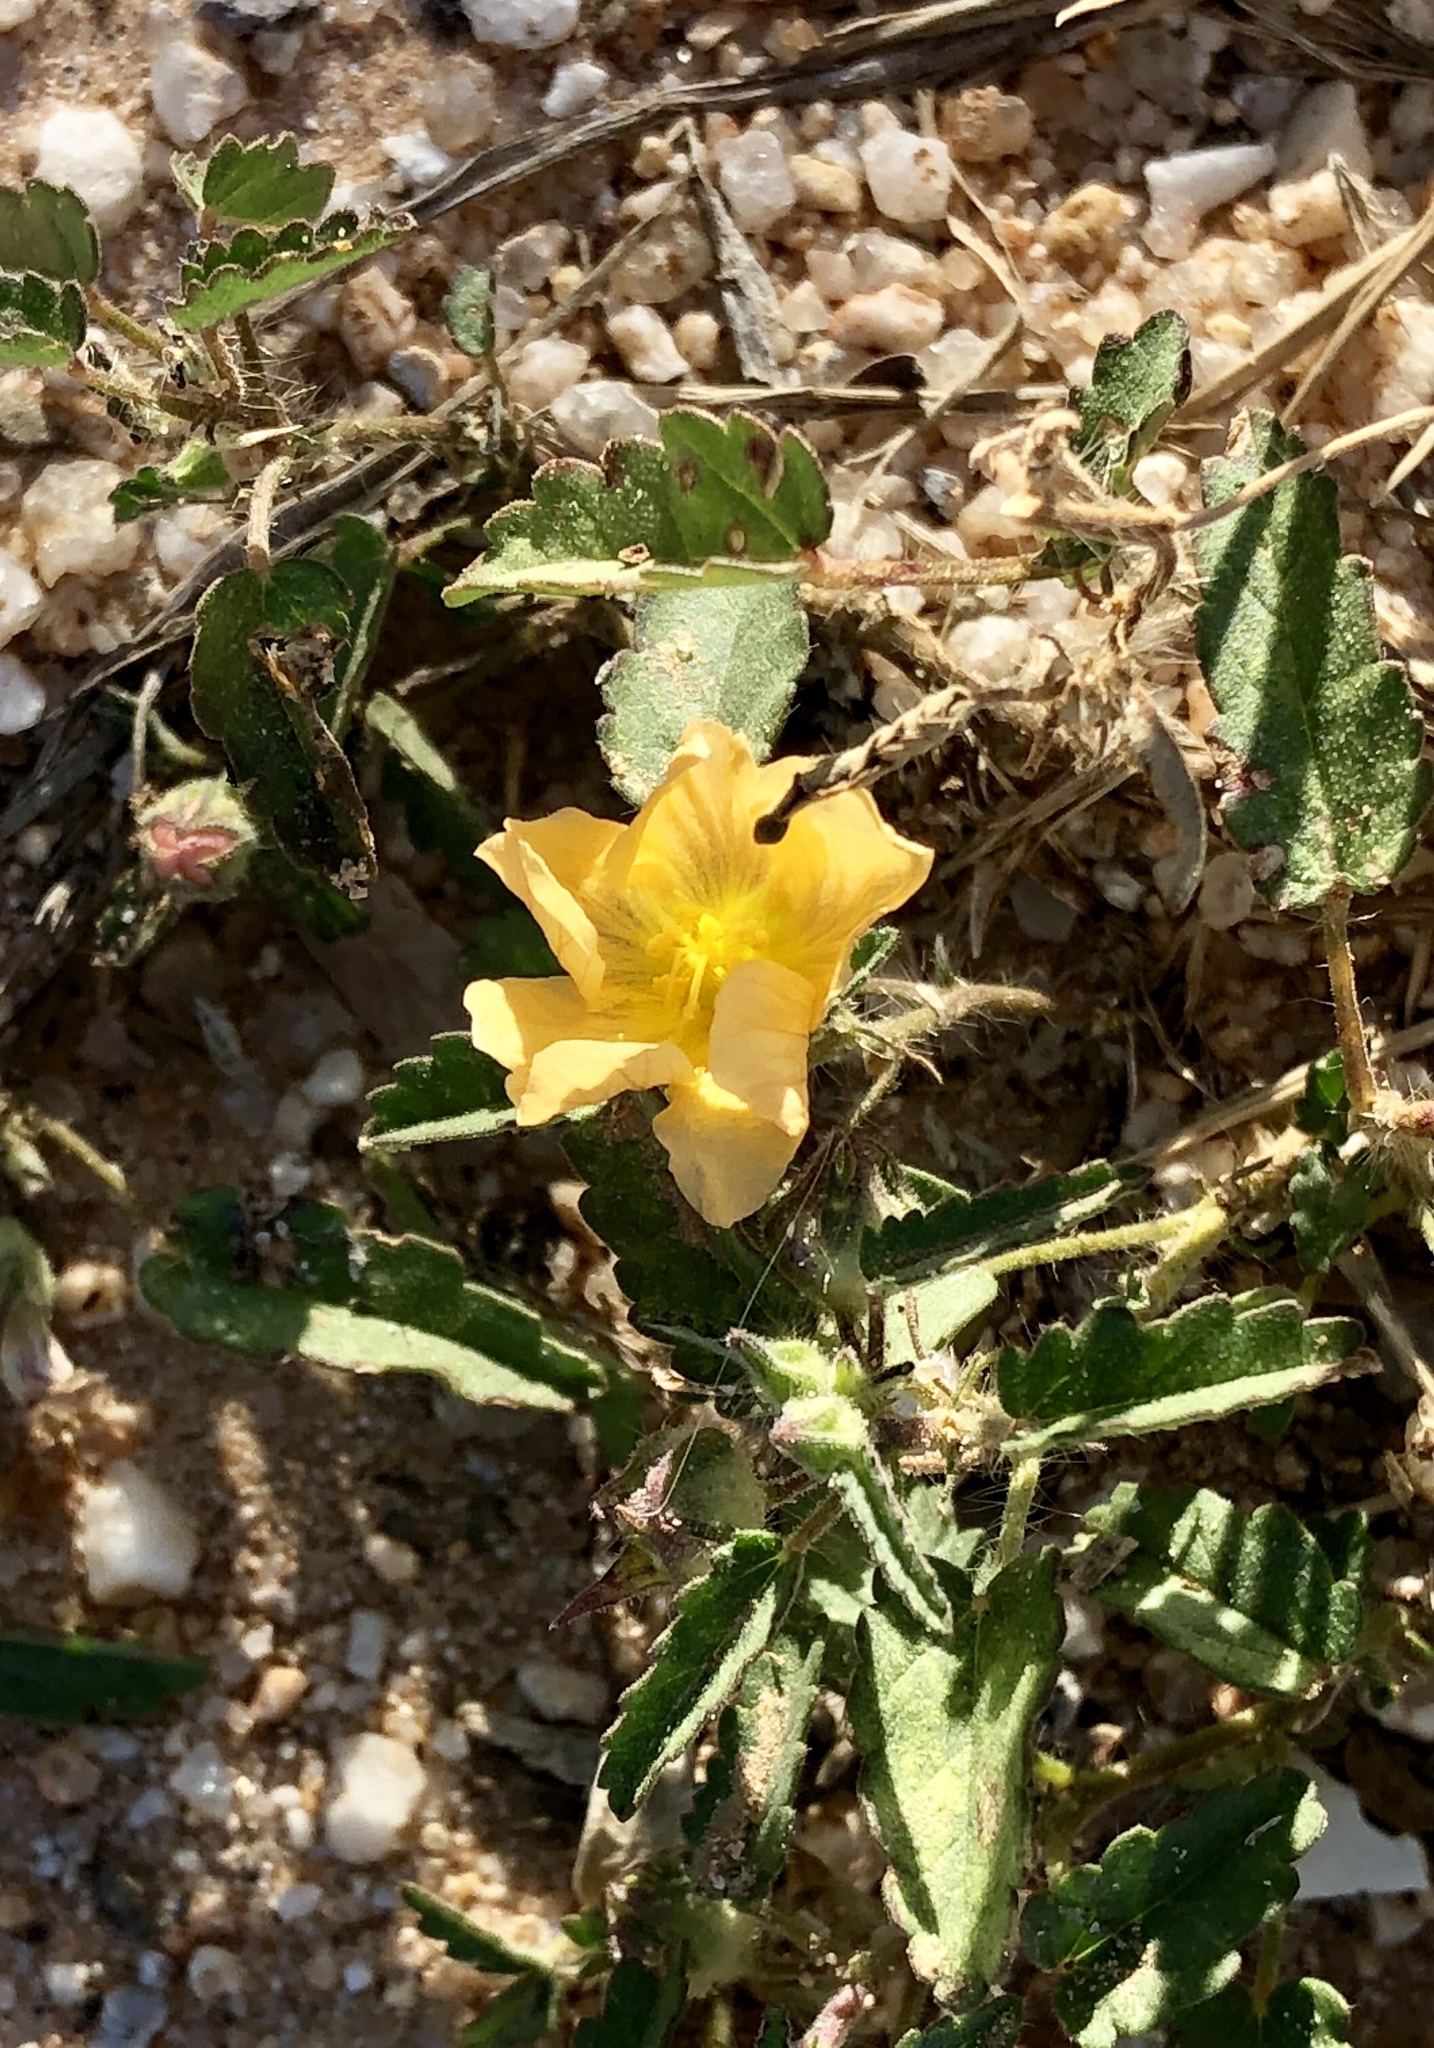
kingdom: Plantae
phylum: Tracheophyta
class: Magnoliopsida
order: Malvales
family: Malvaceae
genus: Sida
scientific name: Sida abutilifolia
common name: Spreading fanpetals
